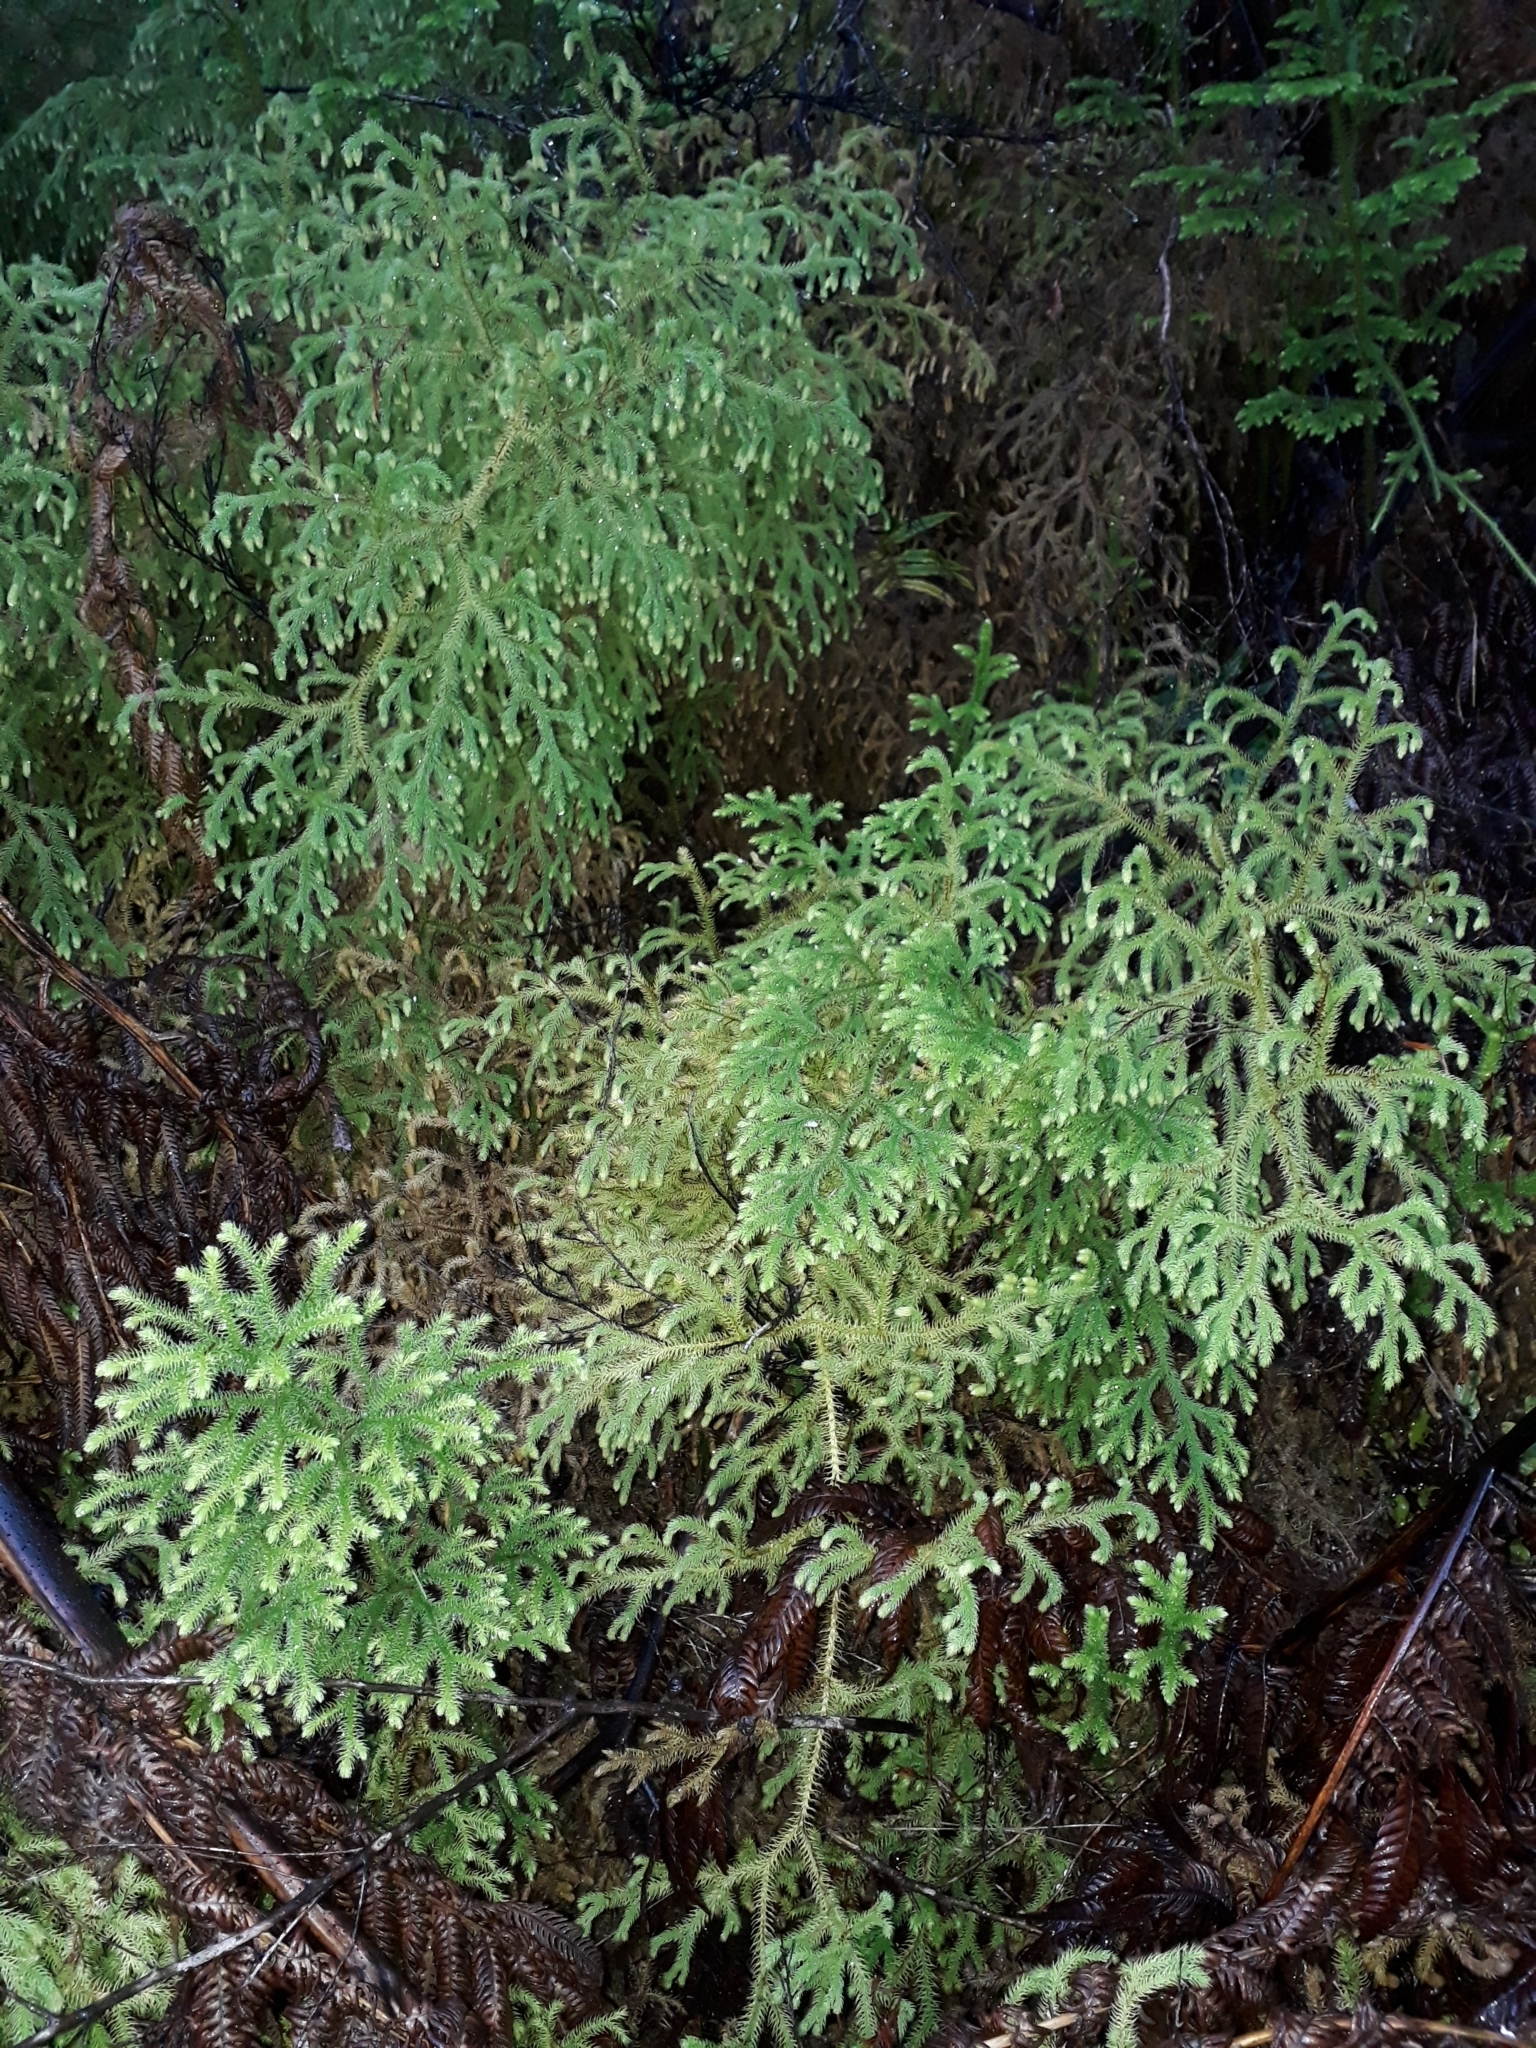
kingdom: Plantae
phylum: Tracheophyta
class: Lycopodiopsida
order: Lycopodiales
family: Lycopodiaceae
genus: Palhinhaea
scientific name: Palhinhaea cernua
